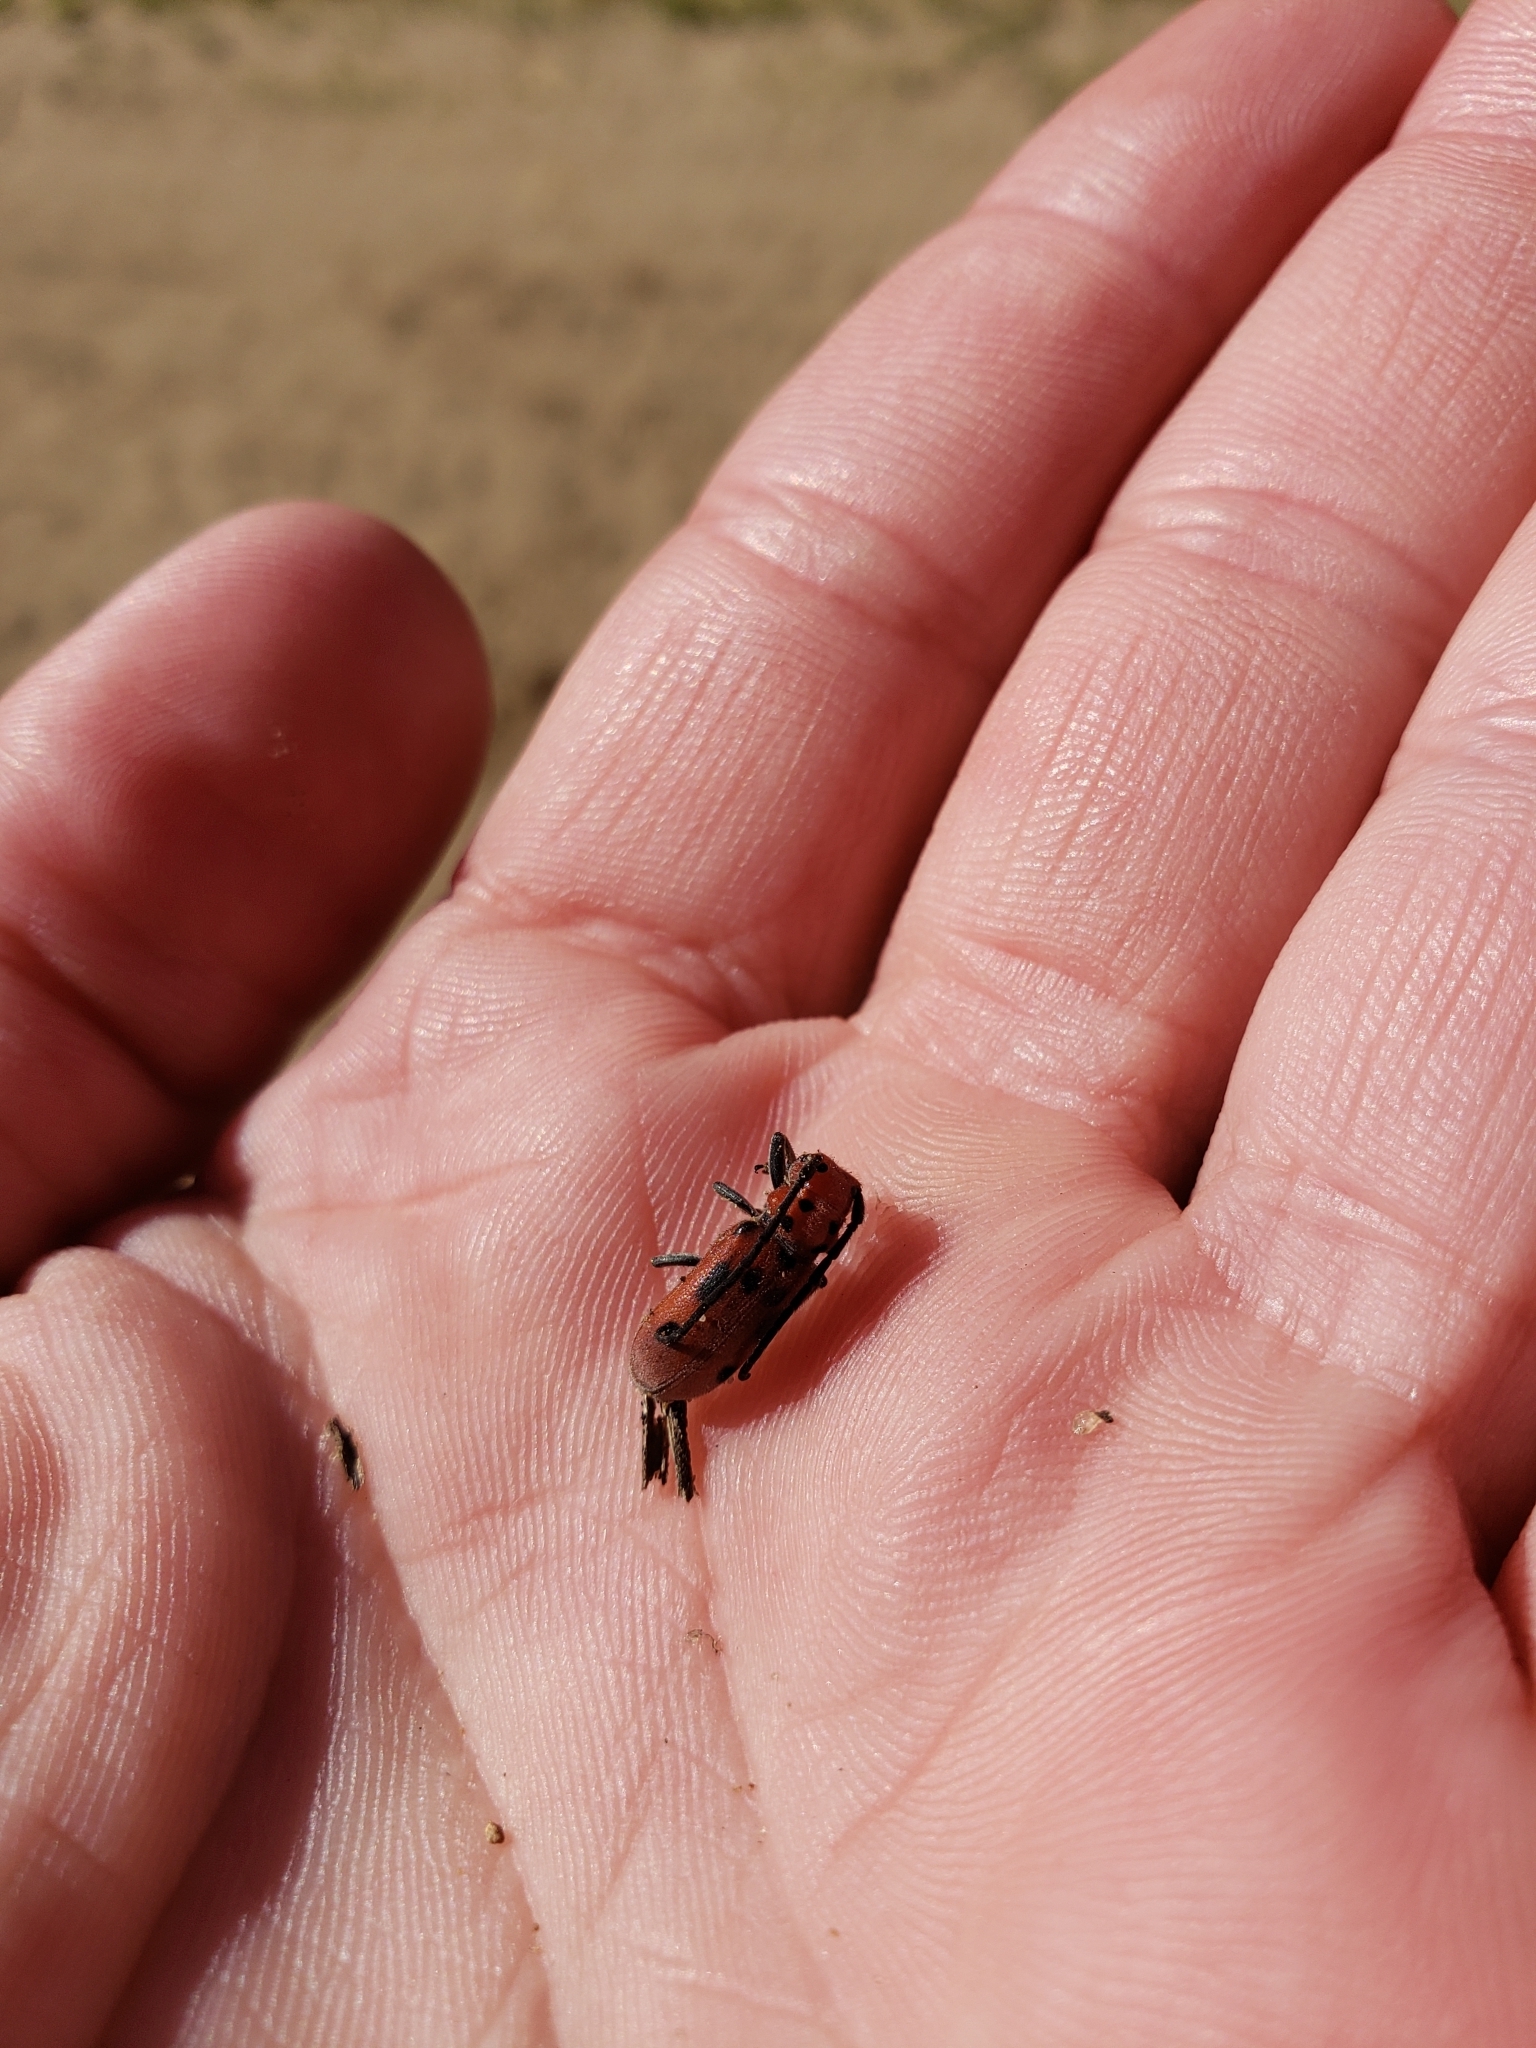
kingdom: Animalia
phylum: Arthropoda
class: Insecta
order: Coleoptera
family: Cerambycidae
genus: Tetraopes
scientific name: Tetraopes tetrophthalmus
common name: Red milkweed beetle
